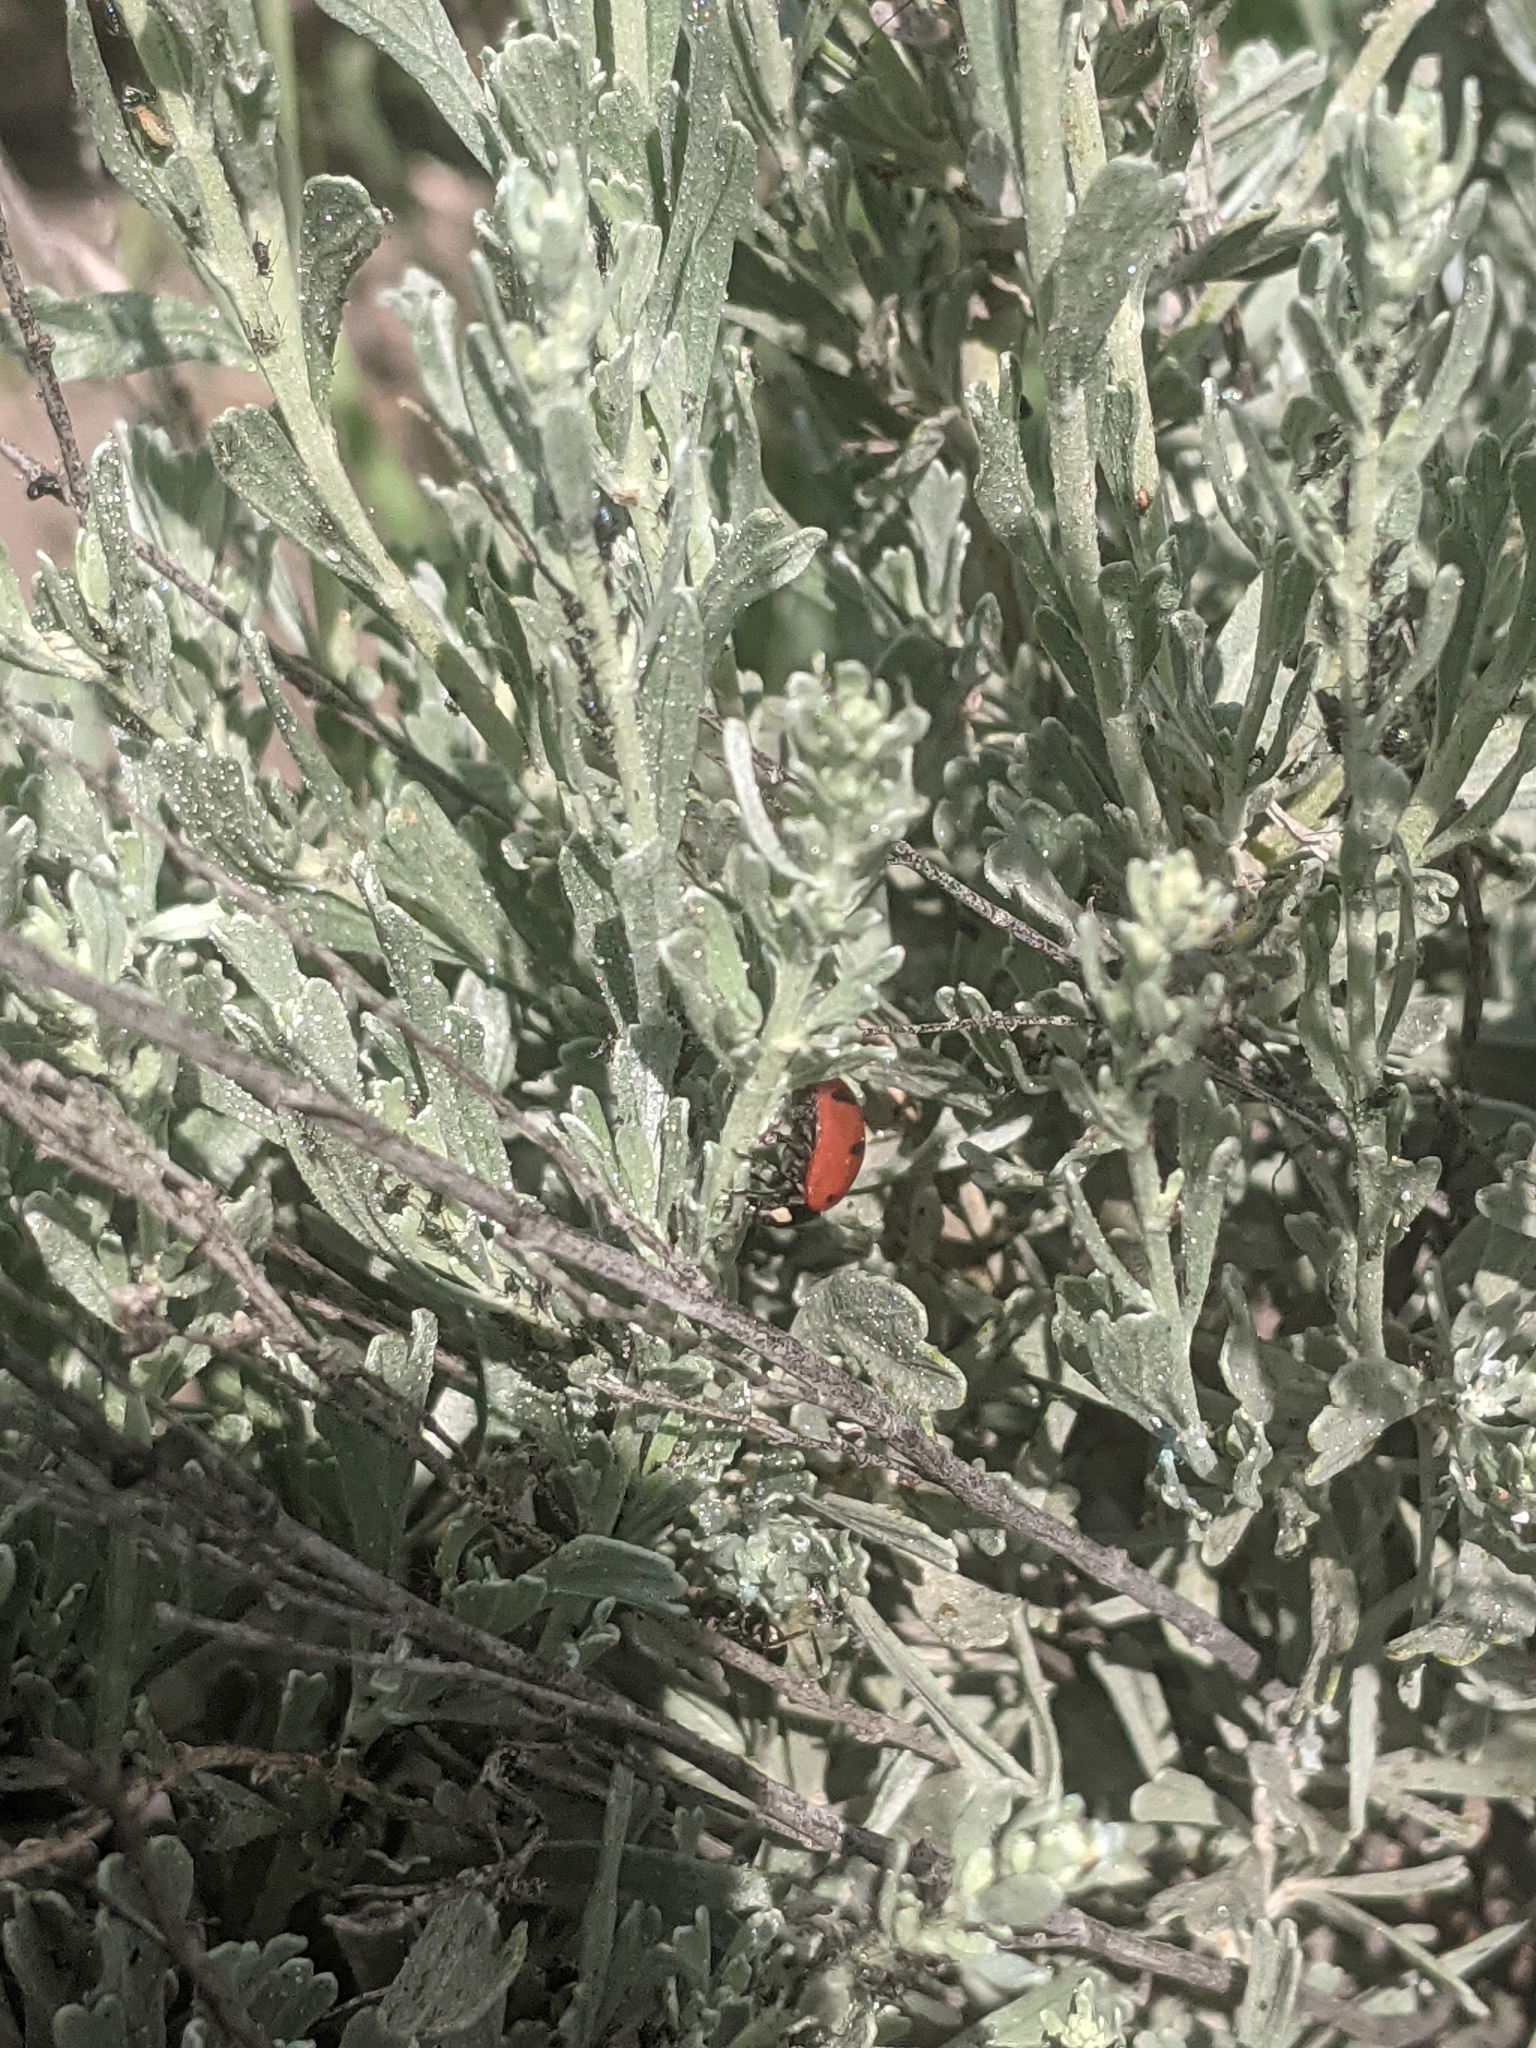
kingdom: Animalia
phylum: Arthropoda
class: Insecta
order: Coleoptera
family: Coccinellidae
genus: Coccinella
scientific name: Coccinella transversoguttata
